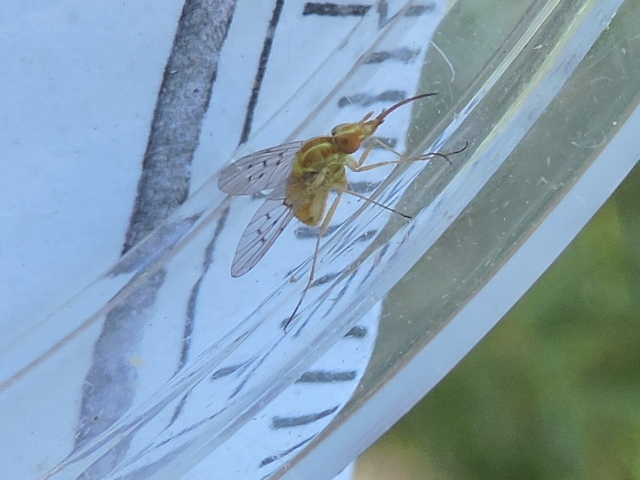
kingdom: Animalia
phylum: Arthropoda
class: Insecta
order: Diptera
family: Bombyliidae
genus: Poecilognathus
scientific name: Poecilognathus unimaculatus
